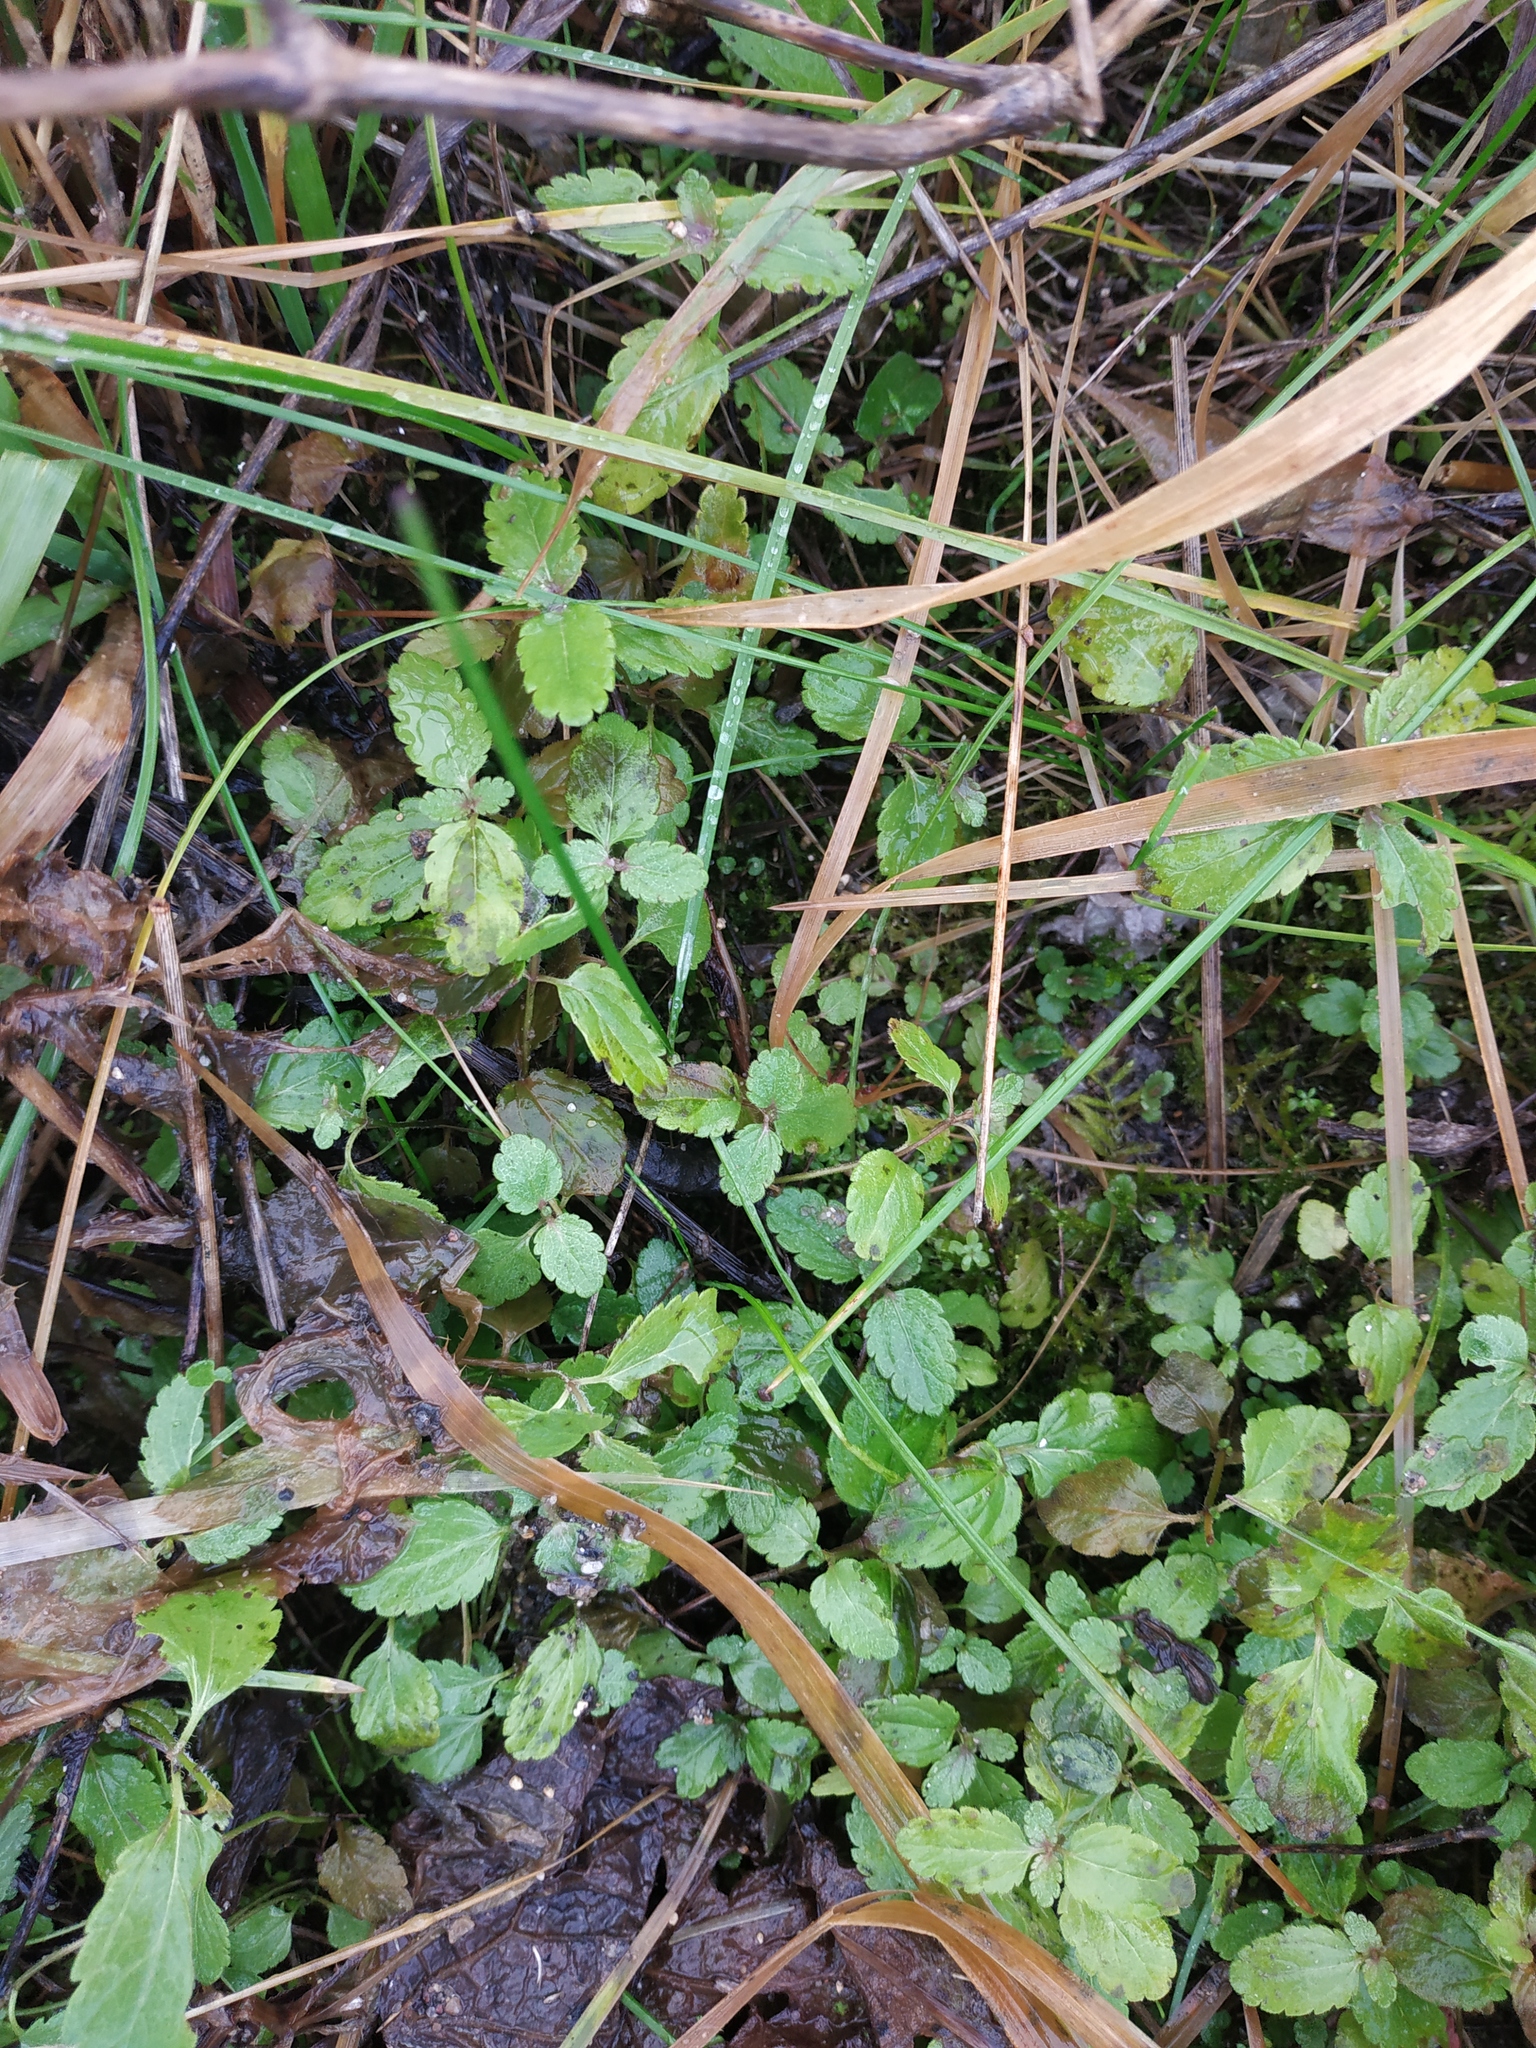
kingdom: Plantae
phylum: Tracheophyta
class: Magnoliopsida
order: Lamiales
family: Plantaginaceae
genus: Veronica
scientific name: Veronica chamaedrys
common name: Germander speedwell
